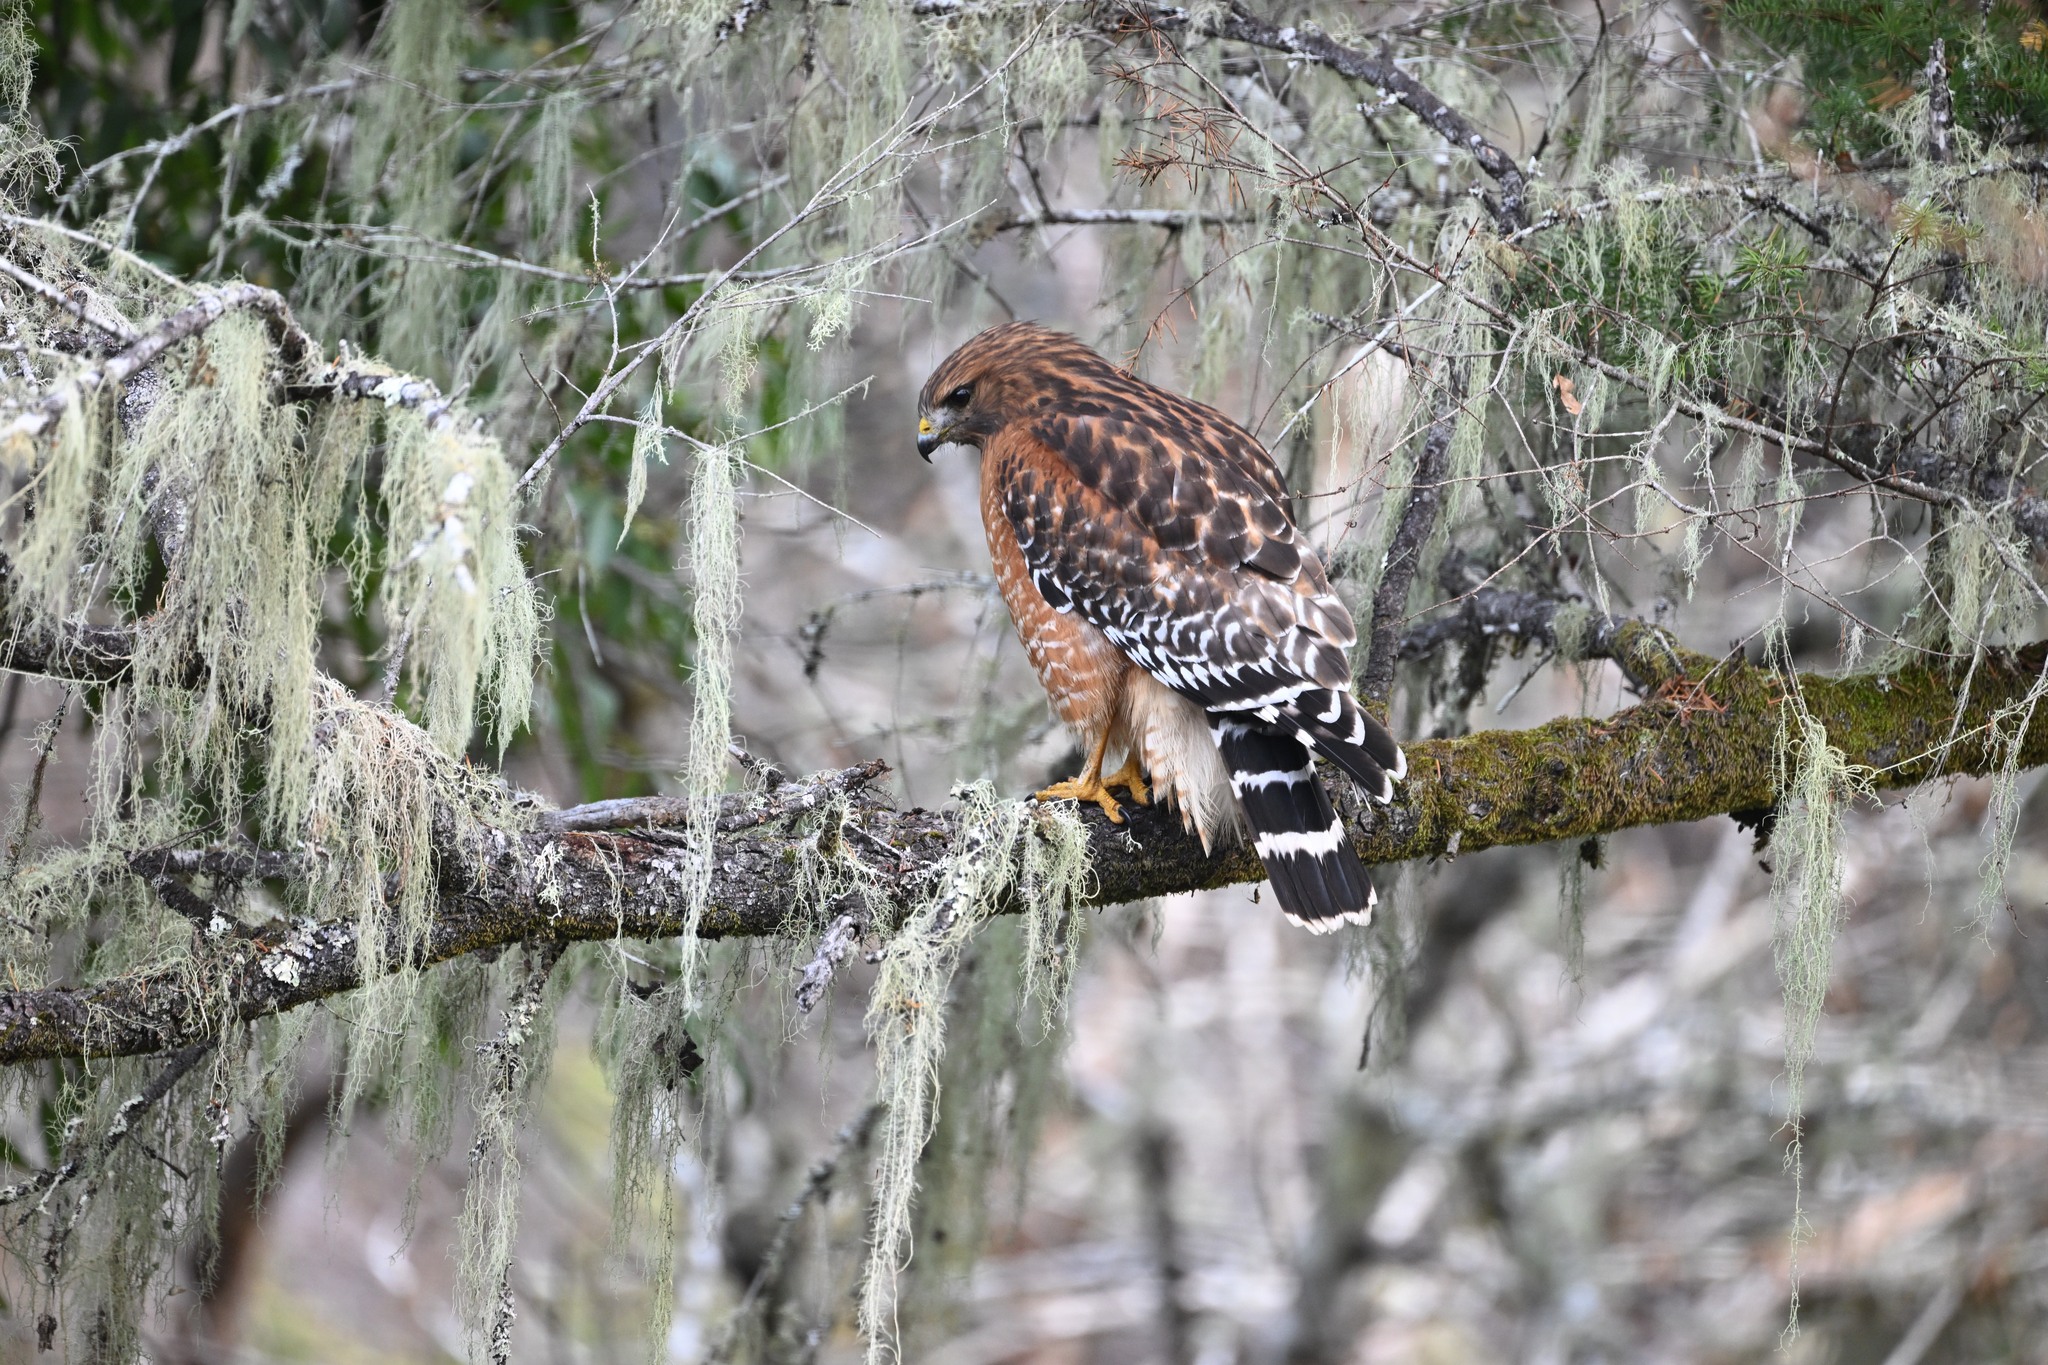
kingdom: Animalia
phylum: Chordata
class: Aves
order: Accipitriformes
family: Accipitridae
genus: Buteo
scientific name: Buteo lineatus
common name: Red-shouldered hawk
